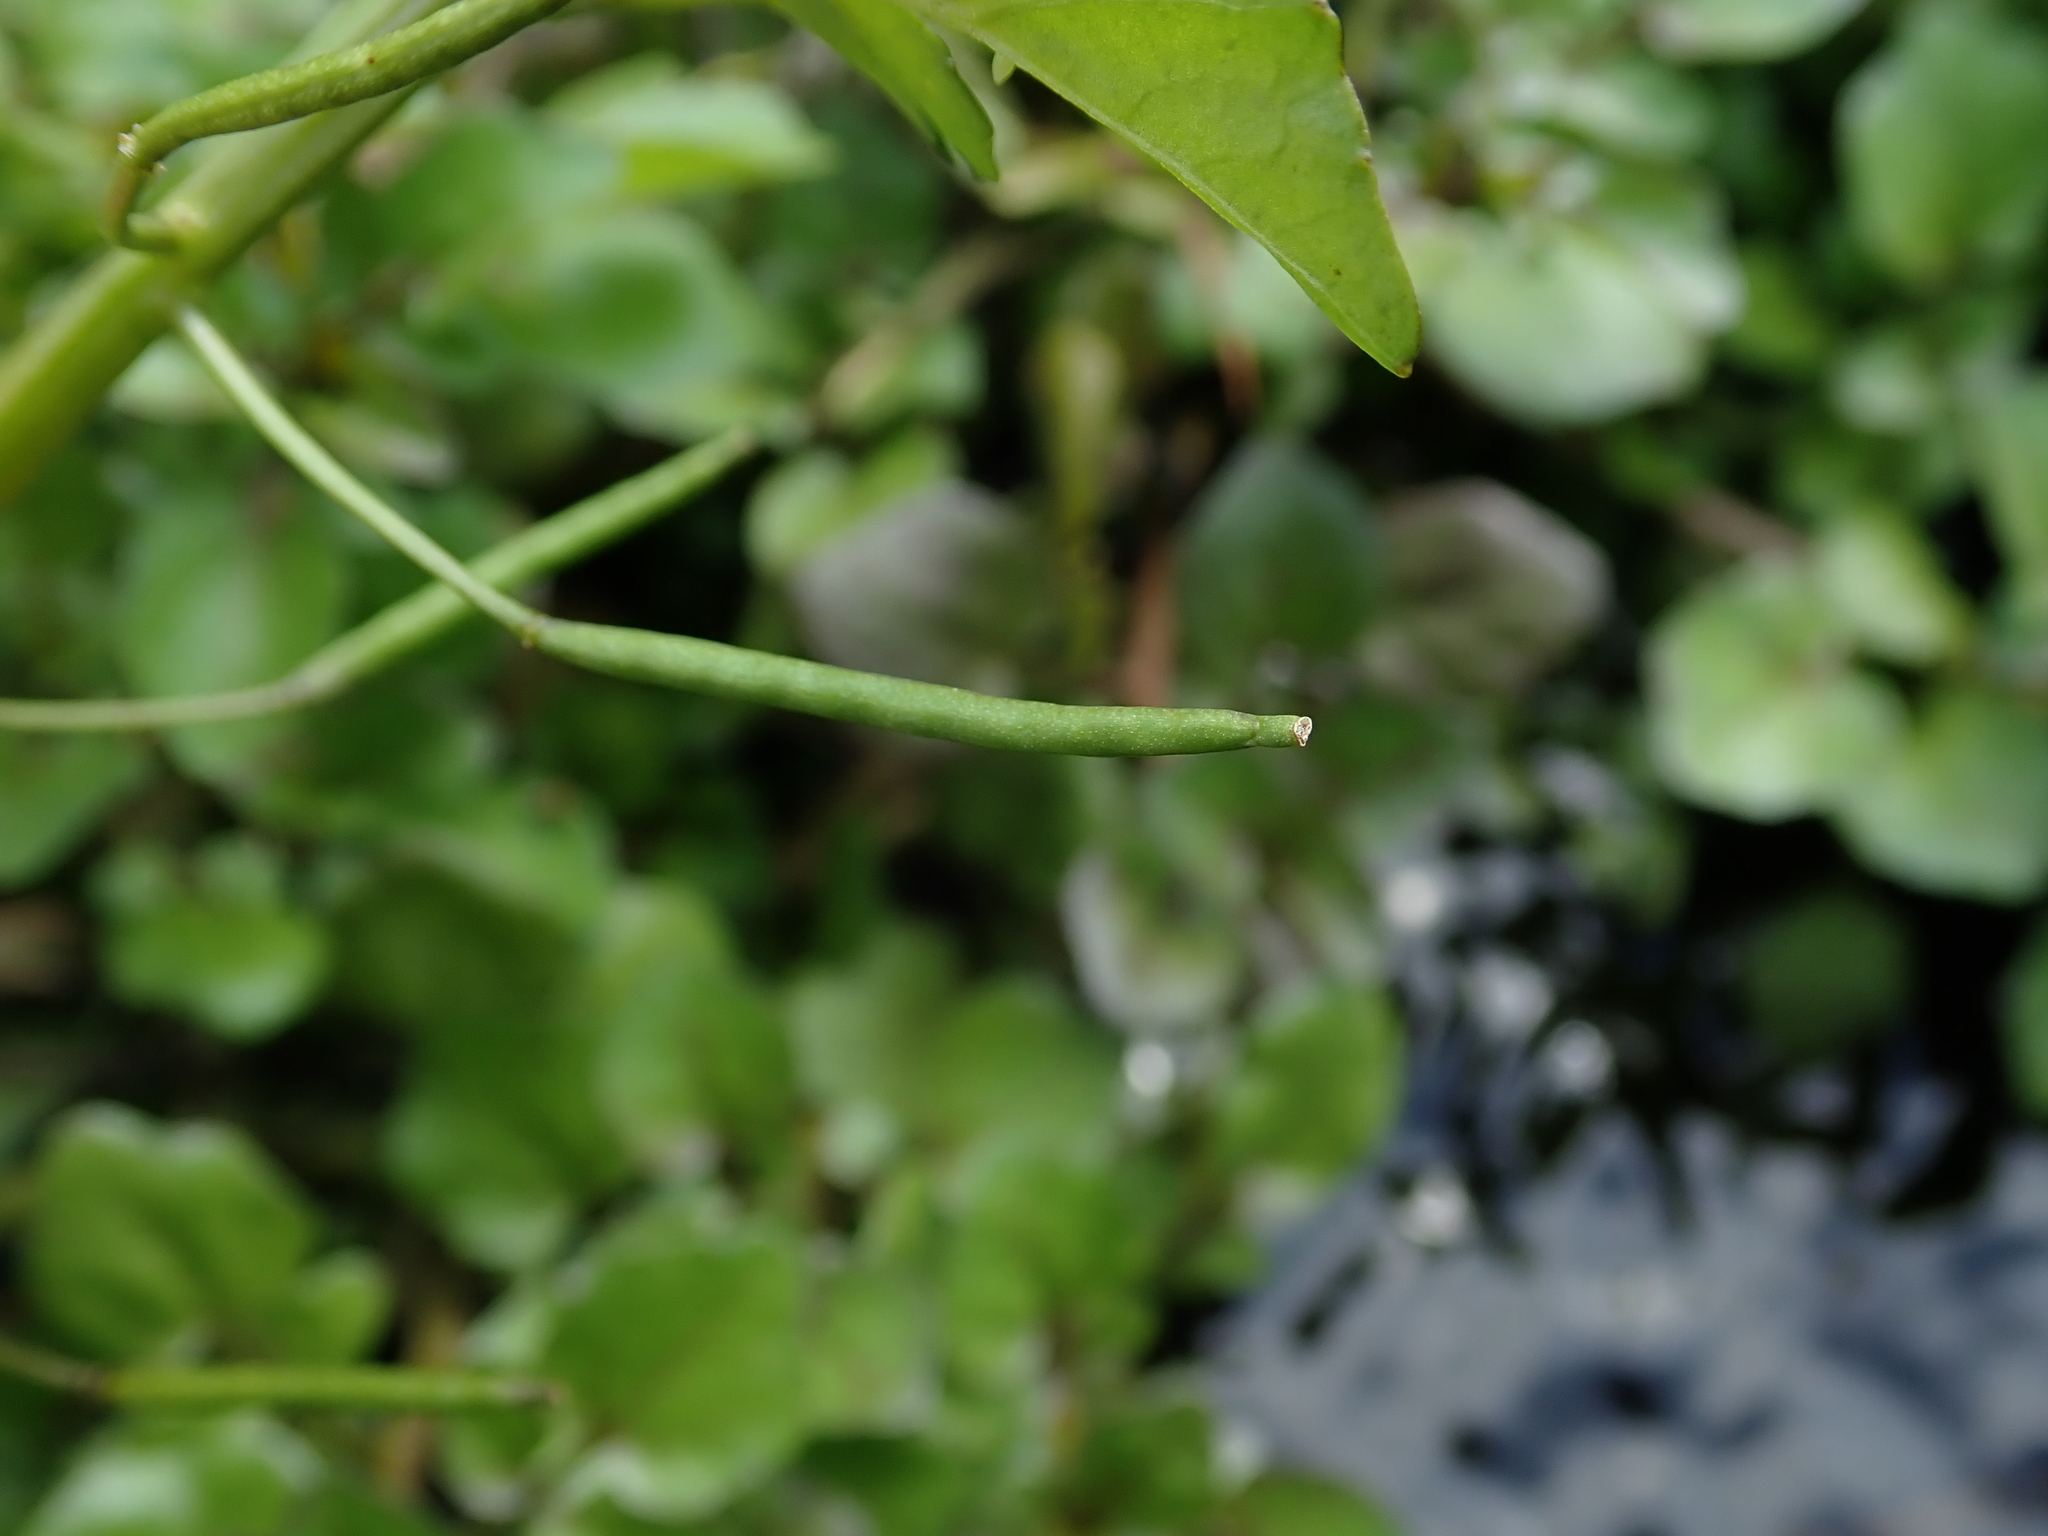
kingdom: Plantae
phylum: Tracheophyta
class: Magnoliopsida
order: Brassicales
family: Brassicaceae
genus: Nasturtium
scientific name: Nasturtium officinale
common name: Watercress
